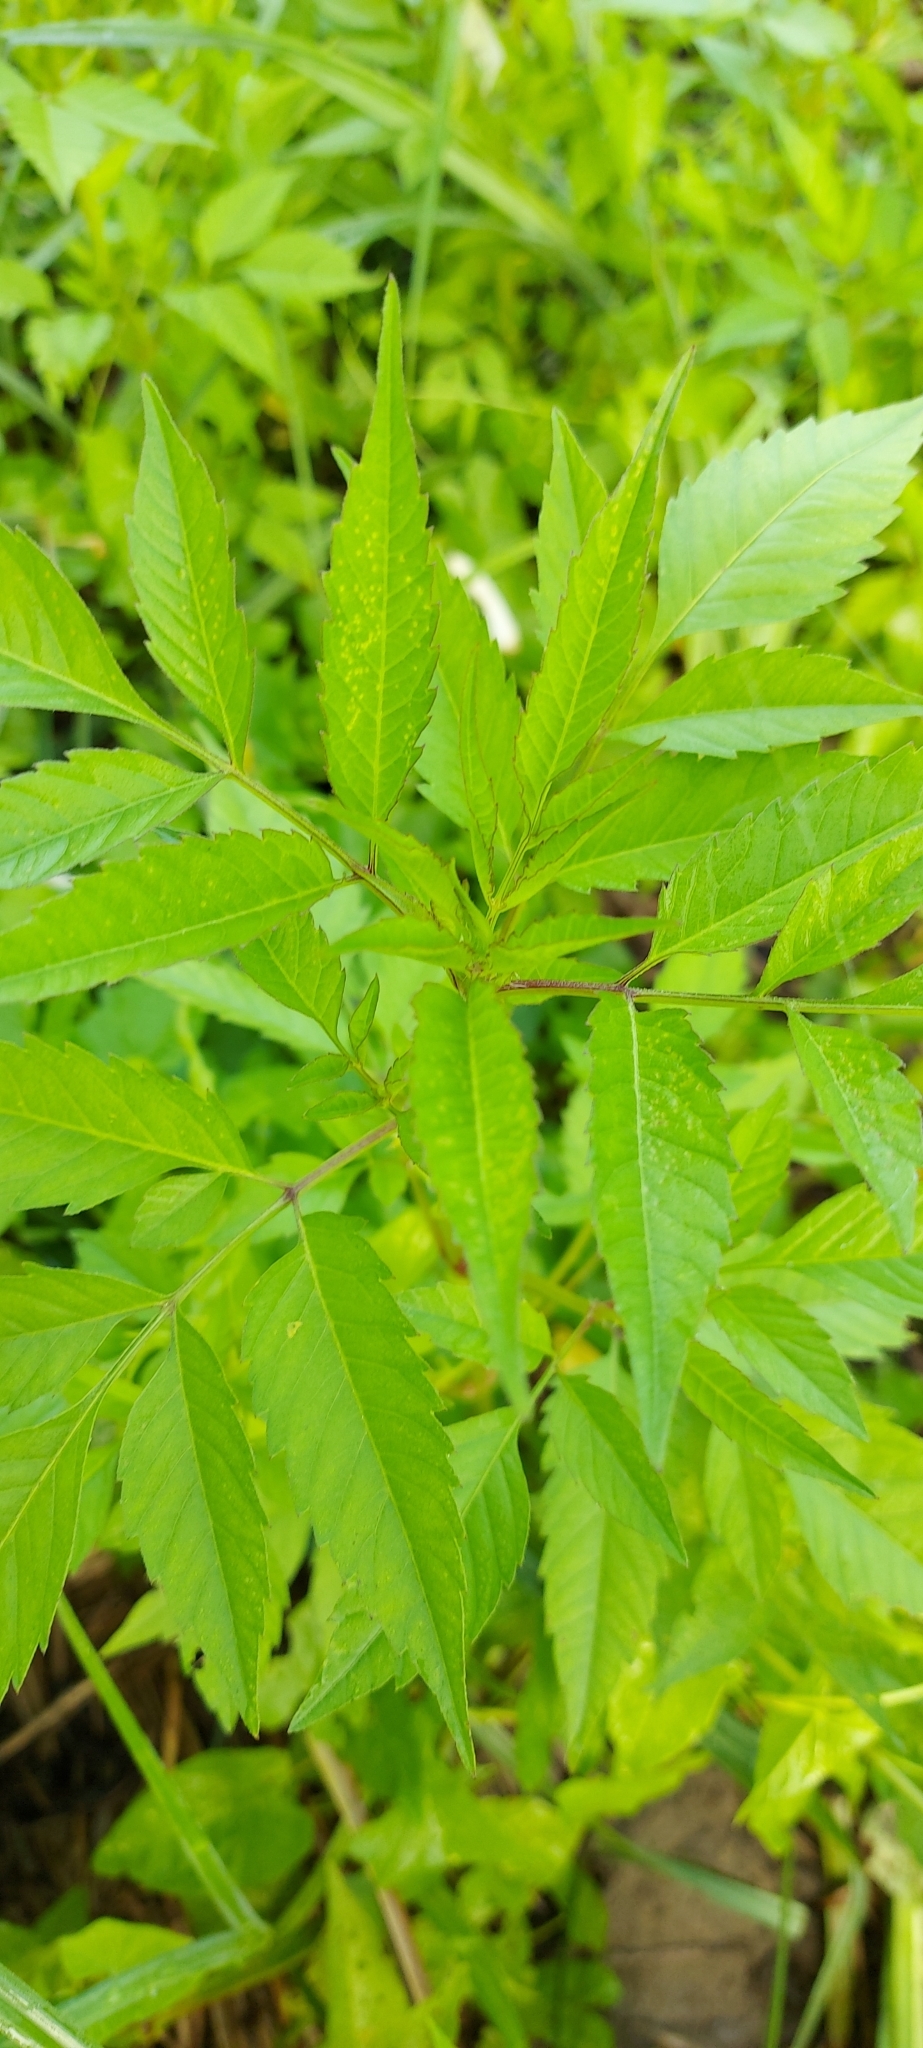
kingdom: Plantae
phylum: Tracheophyta
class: Magnoliopsida
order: Asterales
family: Asteraceae
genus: Bidens
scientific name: Bidens frondosa
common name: Beggarticks
